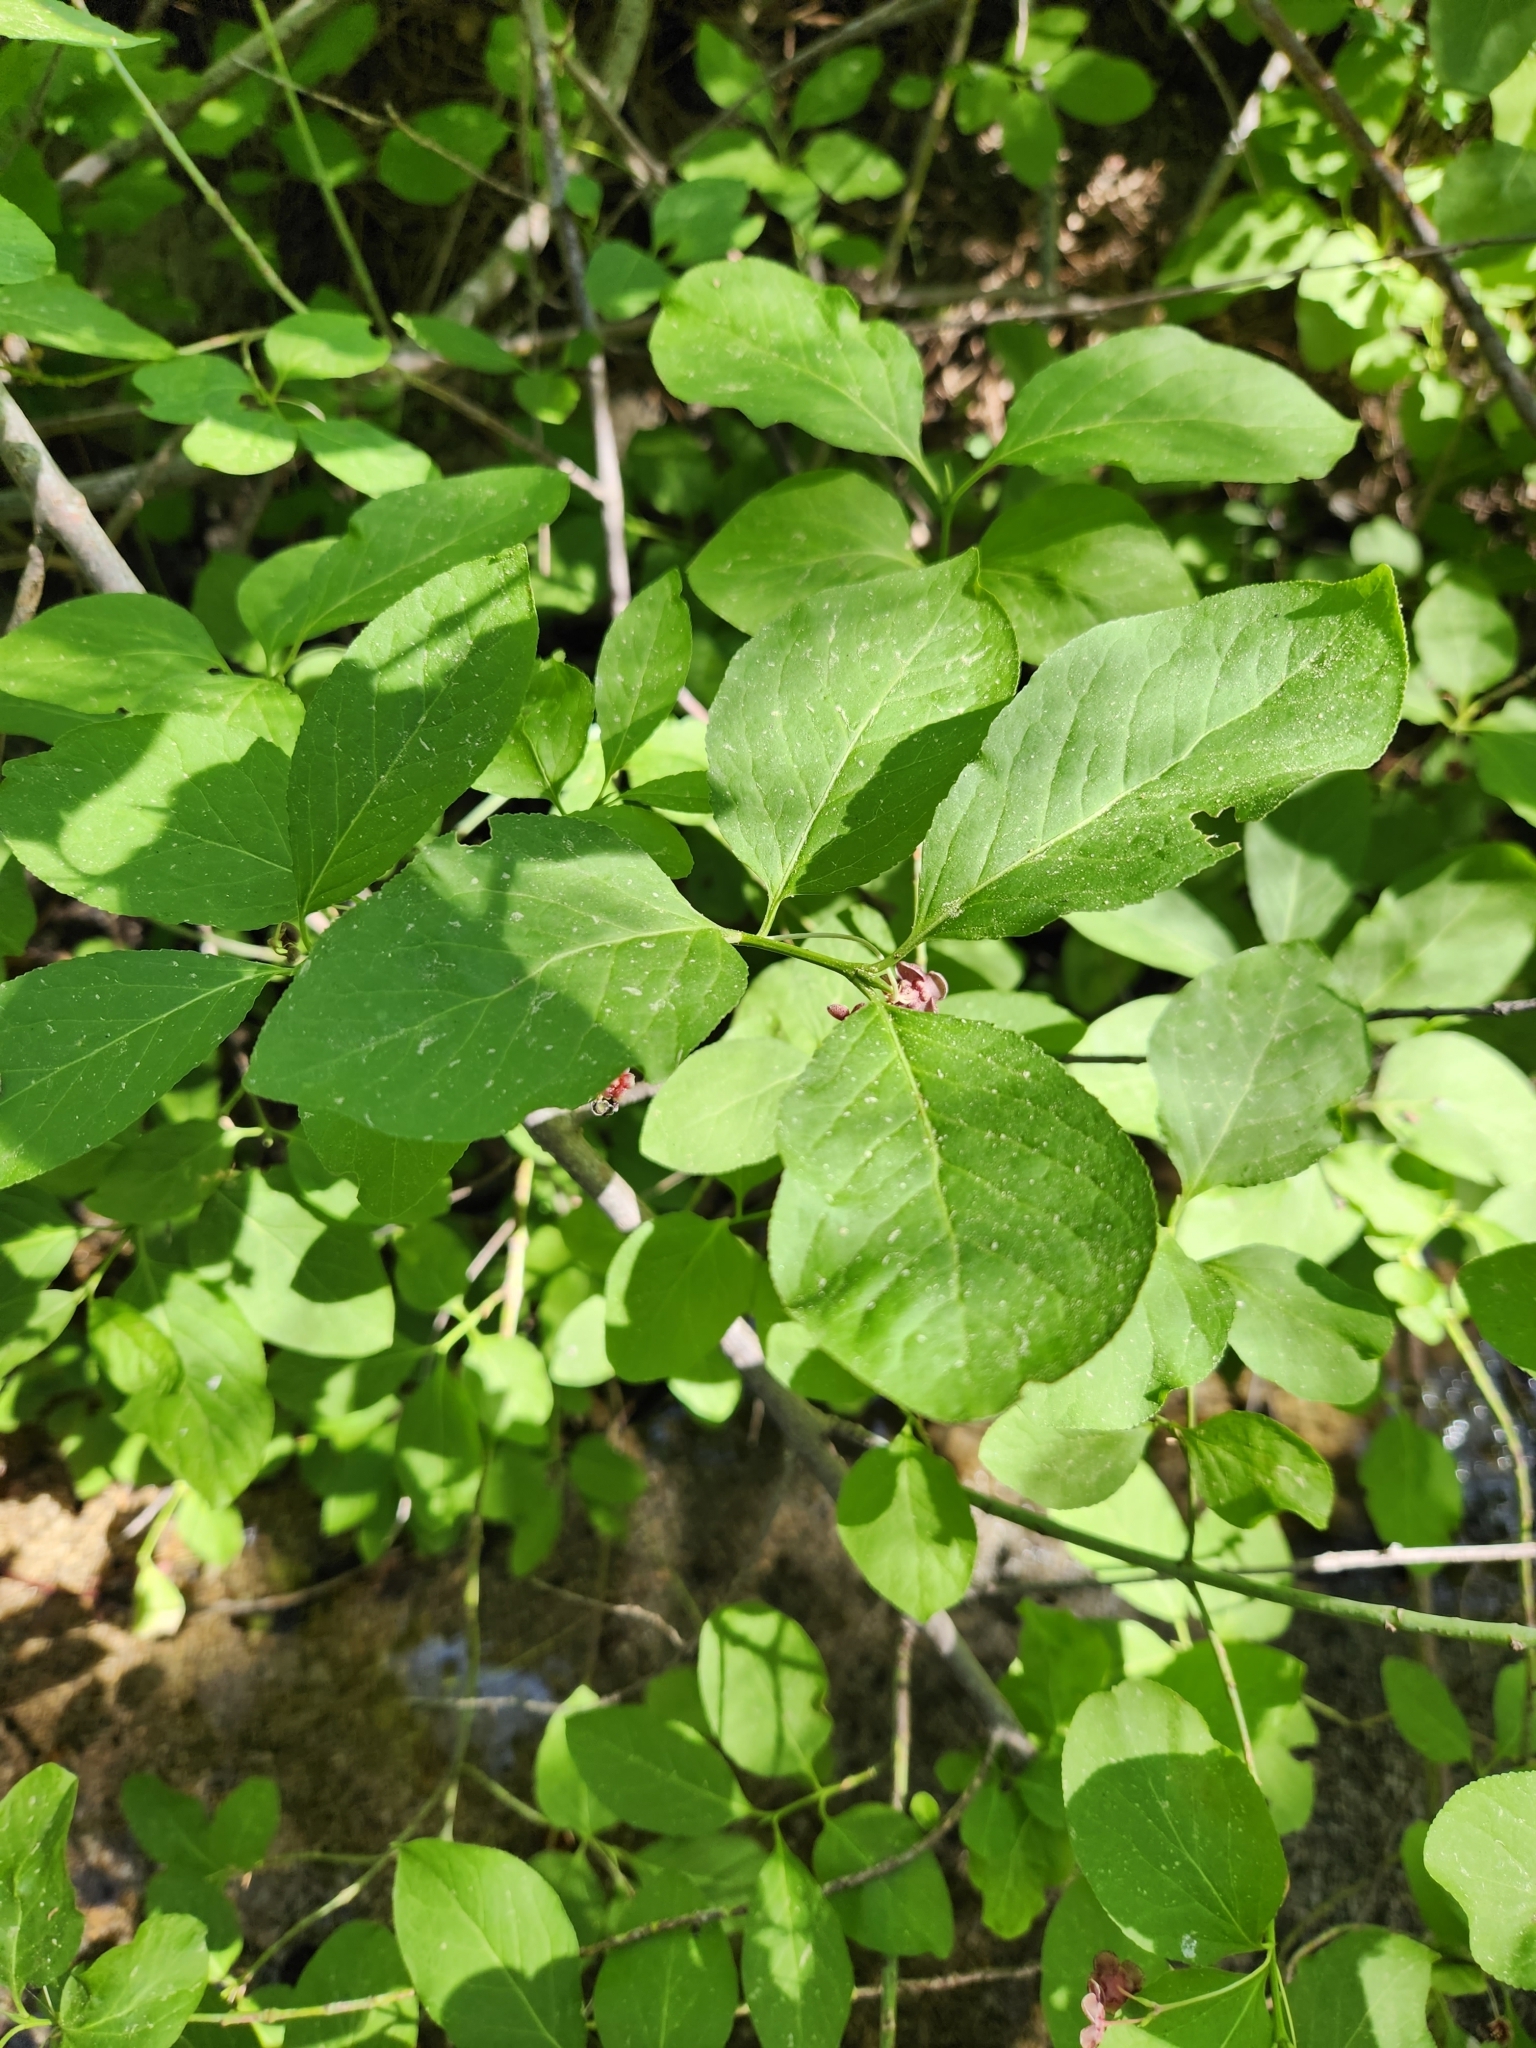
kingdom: Plantae
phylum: Tracheophyta
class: Magnoliopsida
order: Celastrales
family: Celastraceae
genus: Euonymus
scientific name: Euonymus occidentalis
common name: Western burningbush
